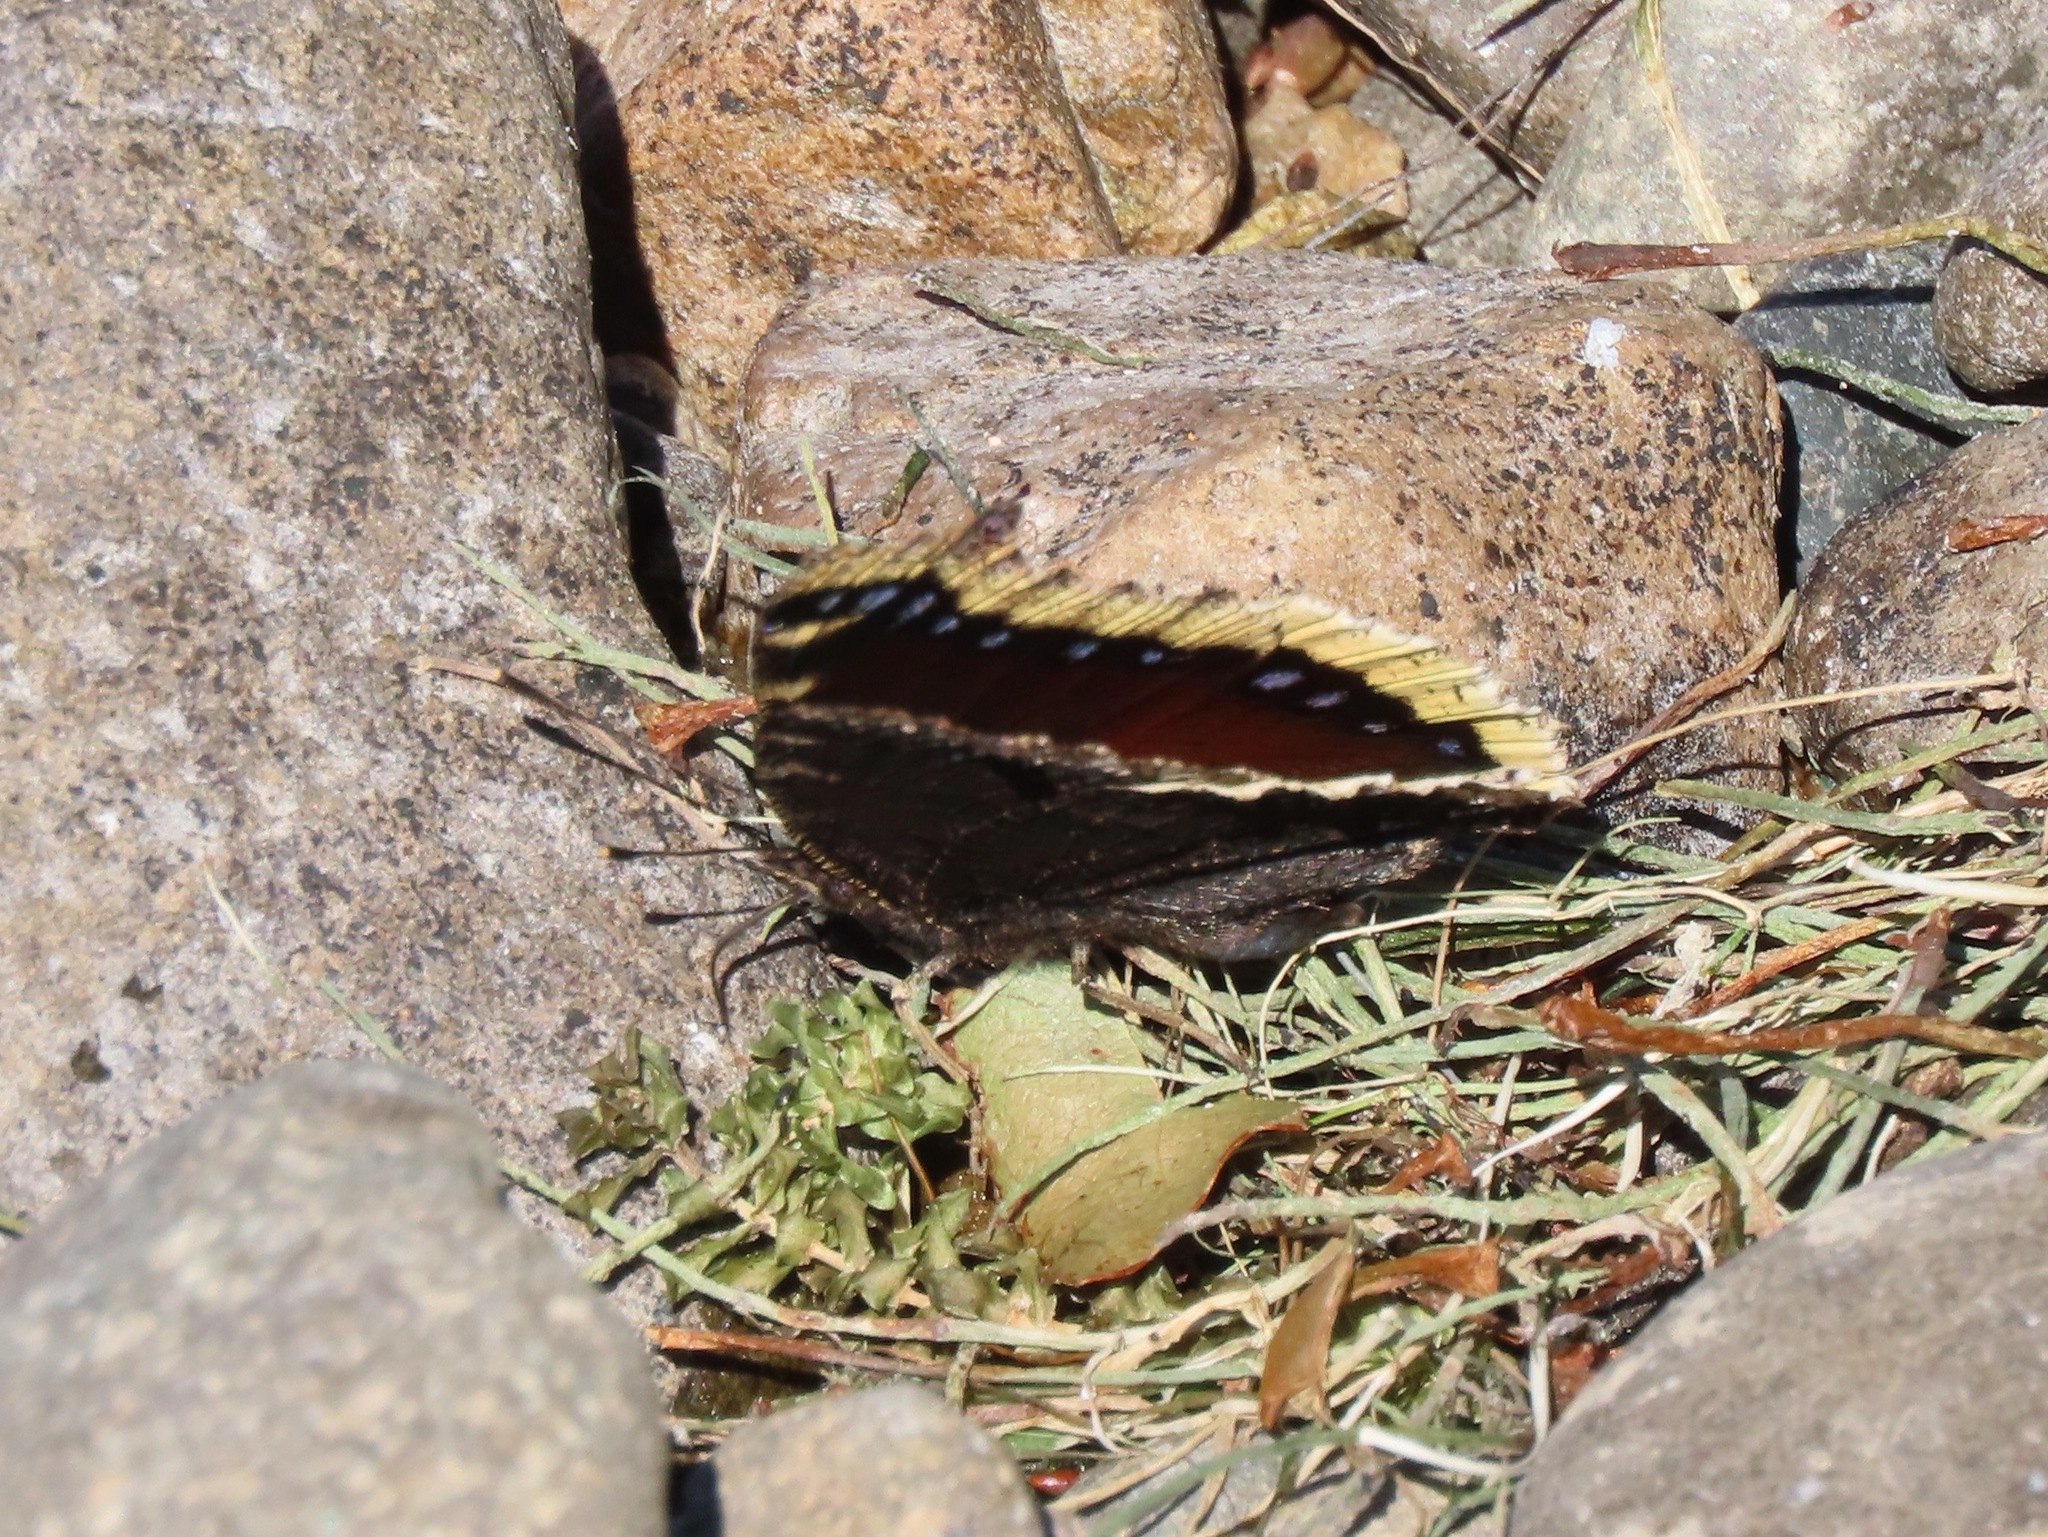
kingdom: Animalia
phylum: Arthropoda
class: Insecta
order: Lepidoptera
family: Nymphalidae
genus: Nymphalis
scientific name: Nymphalis antiopa
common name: Camberwell beauty
